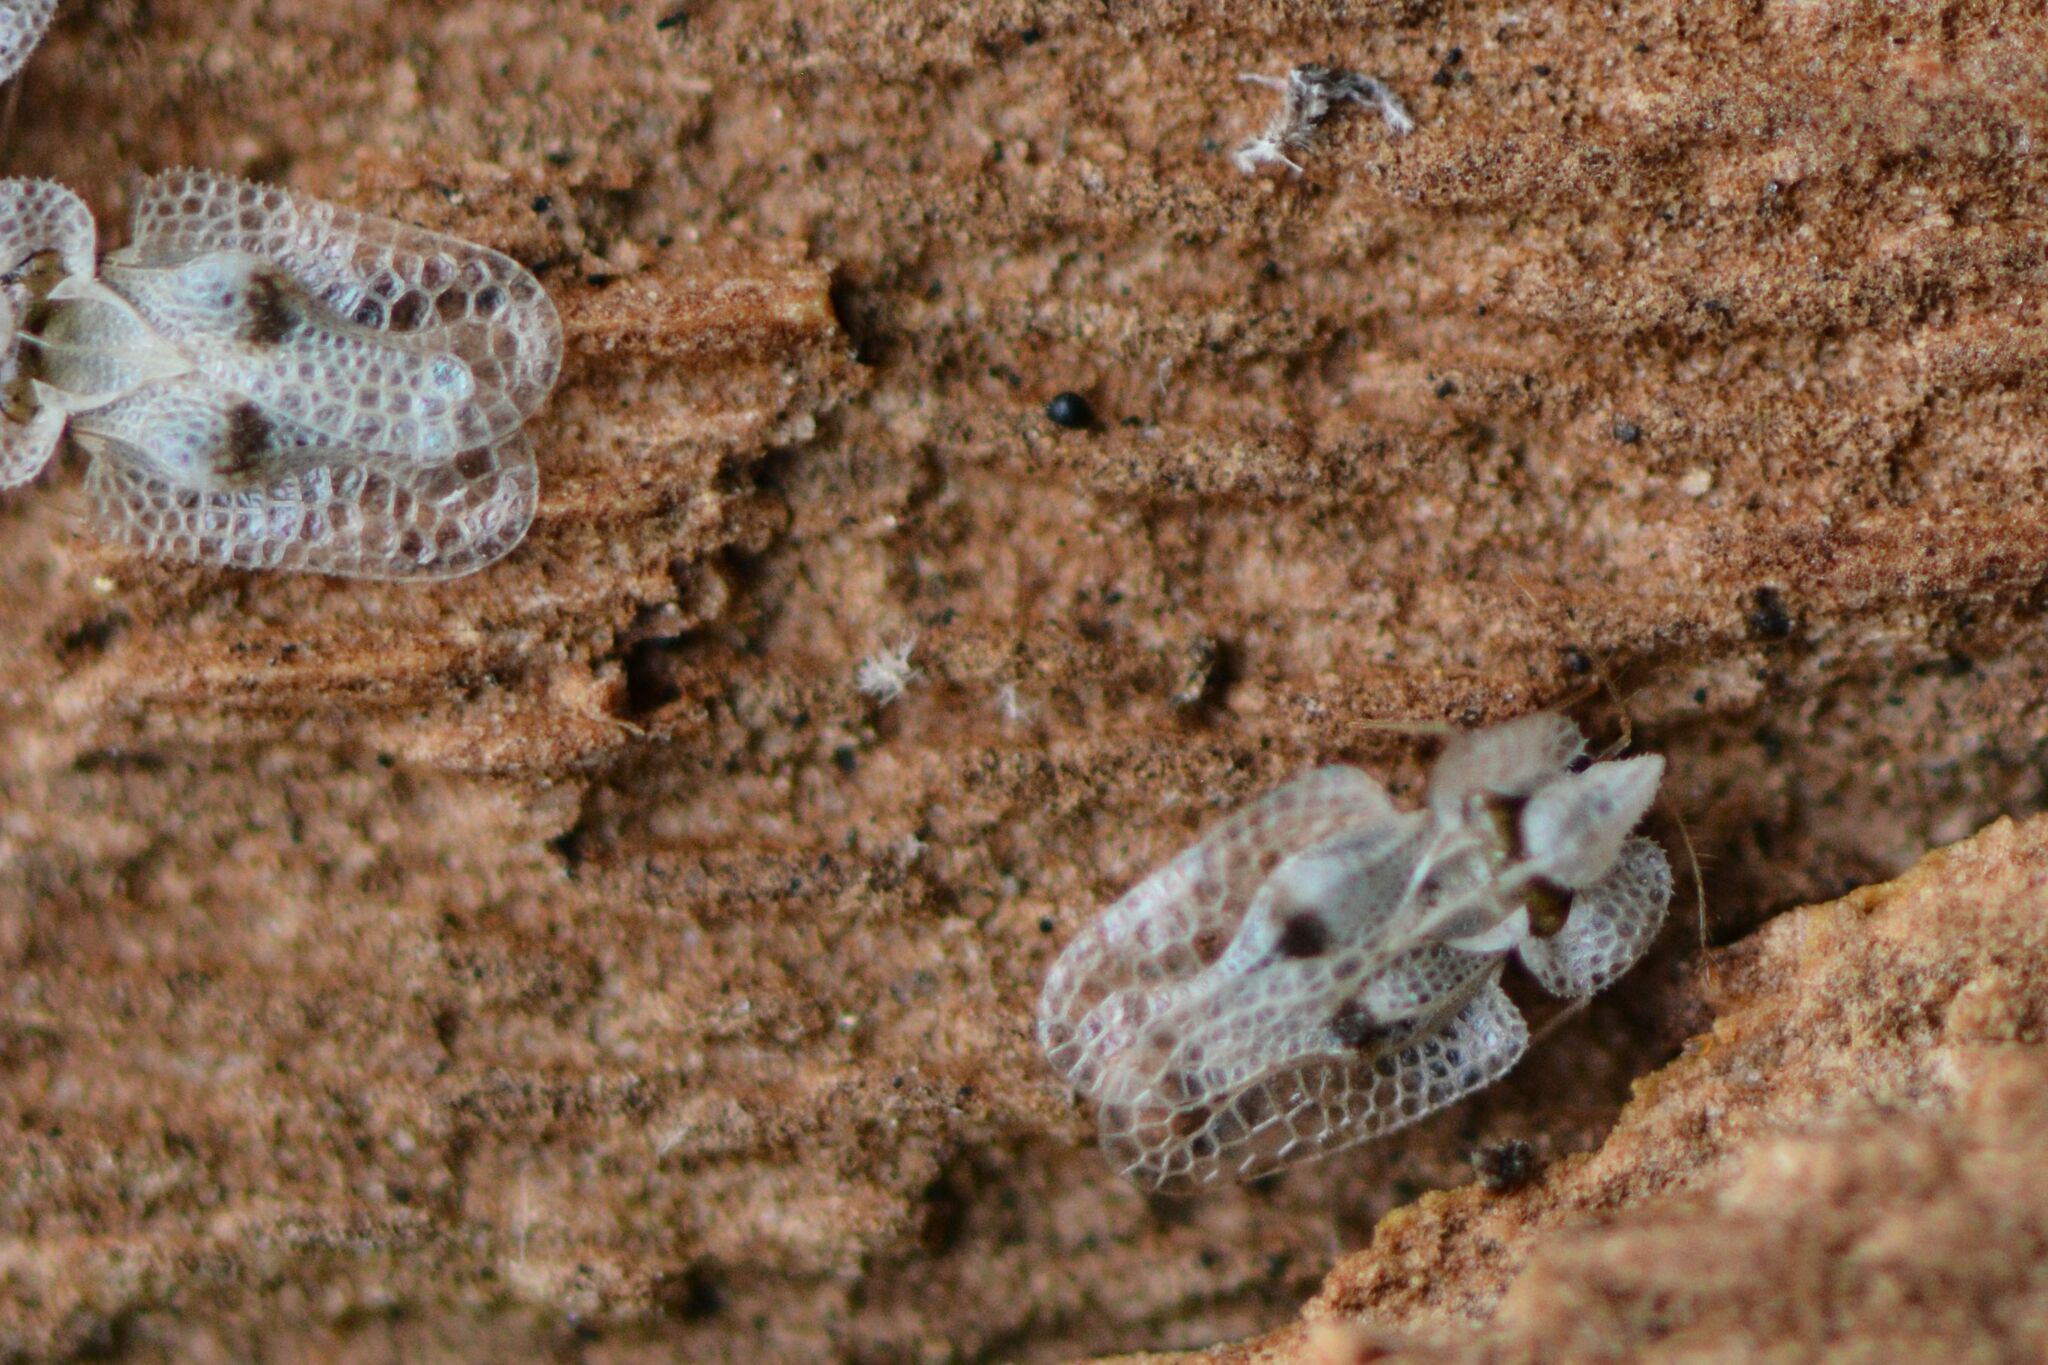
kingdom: Animalia
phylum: Arthropoda
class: Insecta
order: Hemiptera
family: Tingidae
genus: Corythucha
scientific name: Corythucha ciliata
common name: Sycamore lace bug
